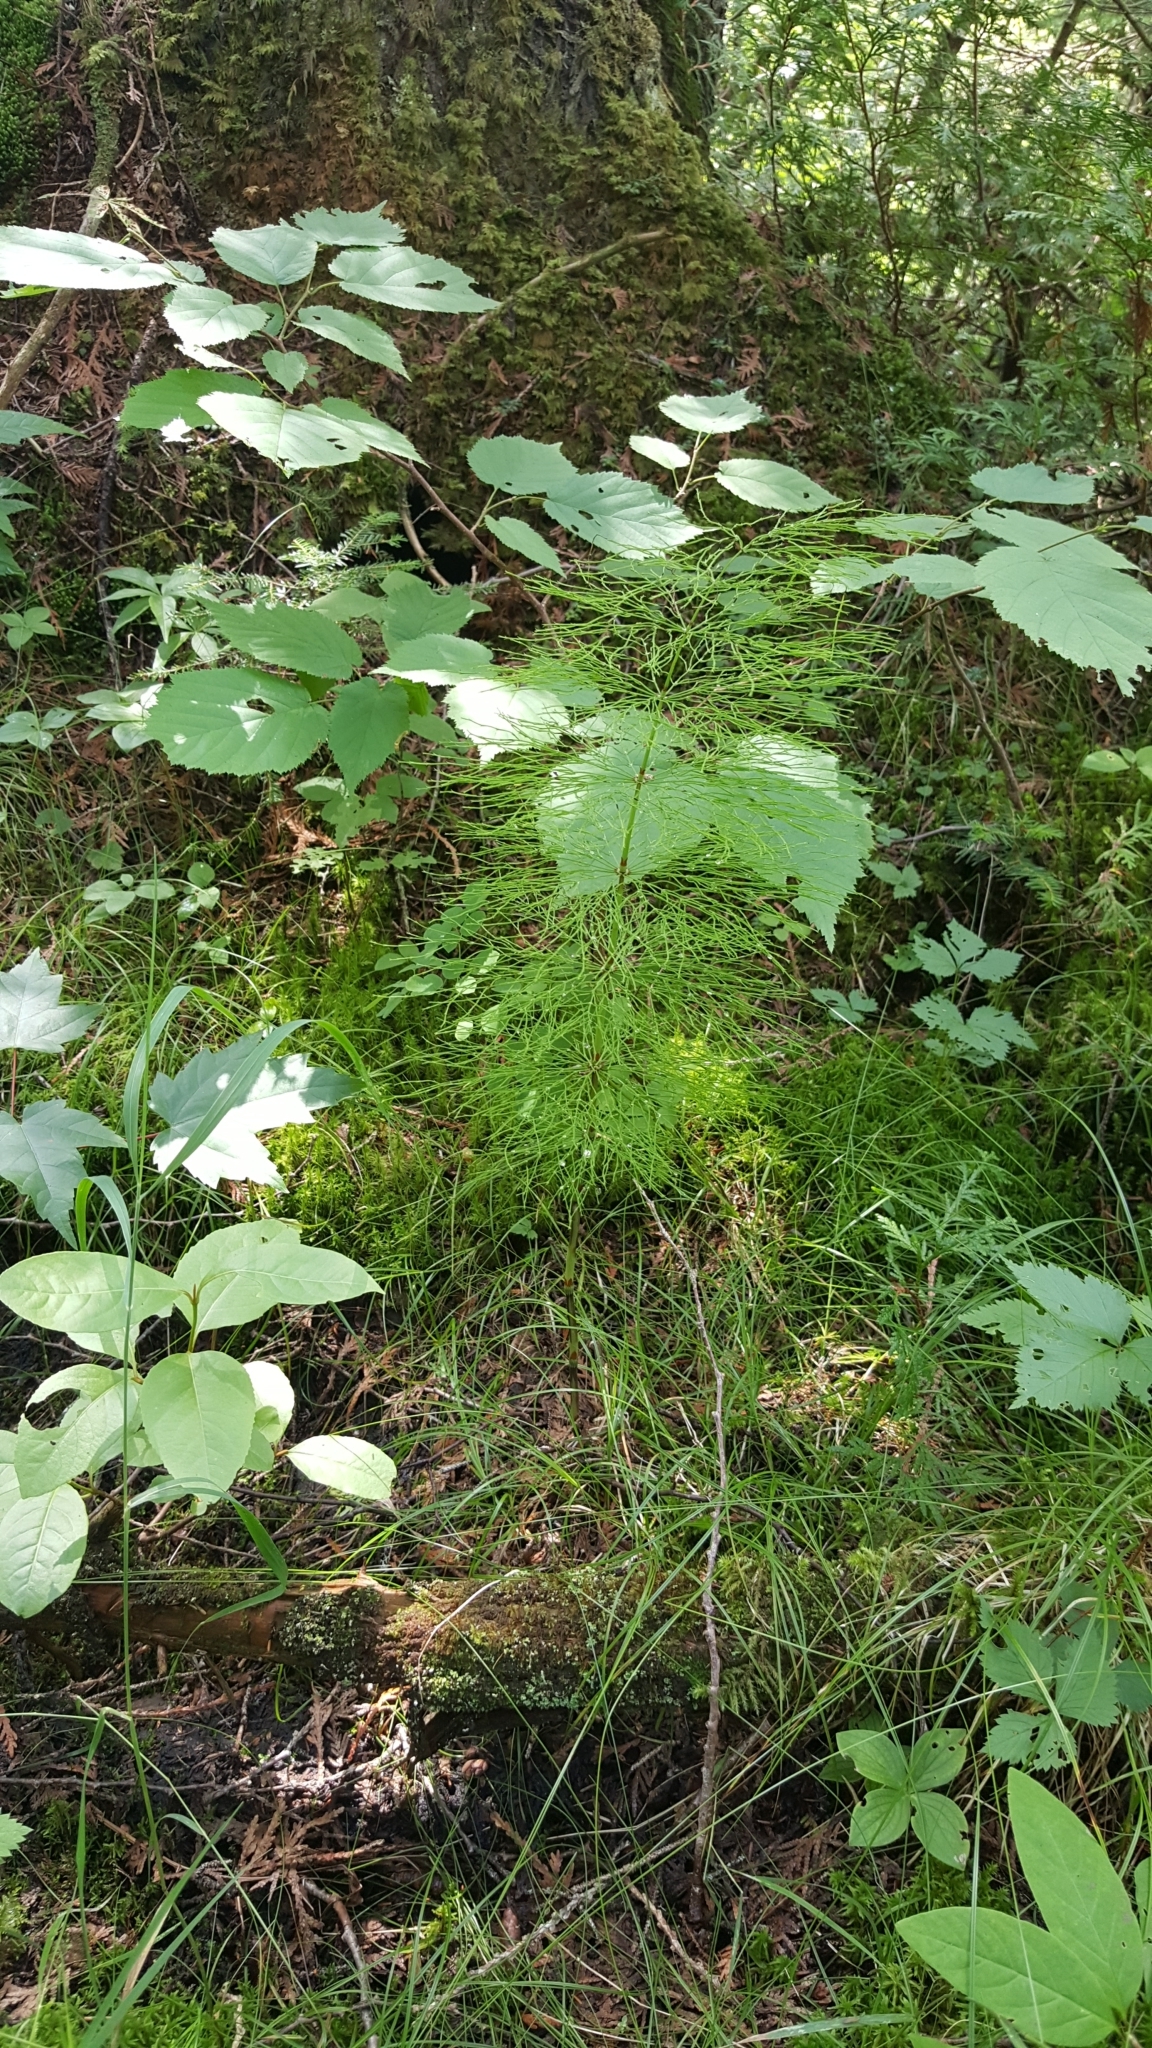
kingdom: Plantae
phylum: Tracheophyta
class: Polypodiopsida
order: Equisetales
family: Equisetaceae
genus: Equisetum
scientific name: Equisetum sylvaticum
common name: Wood horsetail
